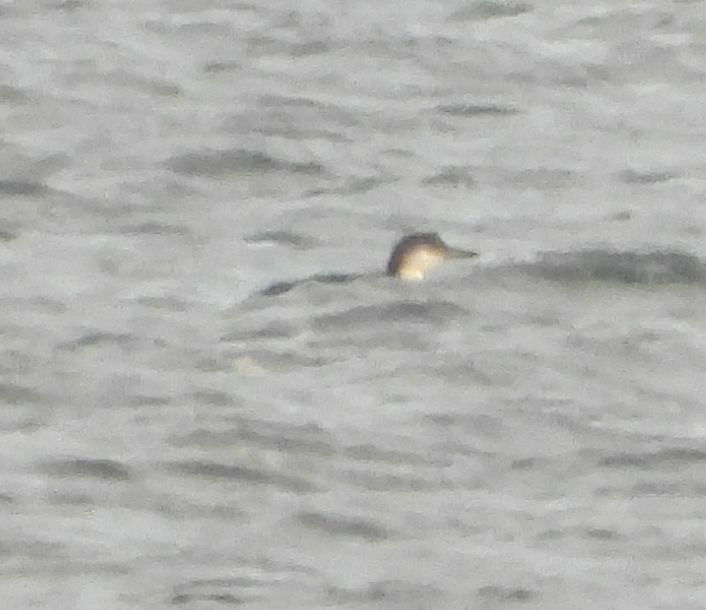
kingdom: Animalia
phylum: Chordata
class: Aves
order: Gaviiformes
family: Gaviidae
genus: Gavia
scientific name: Gavia immer
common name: Common loon
